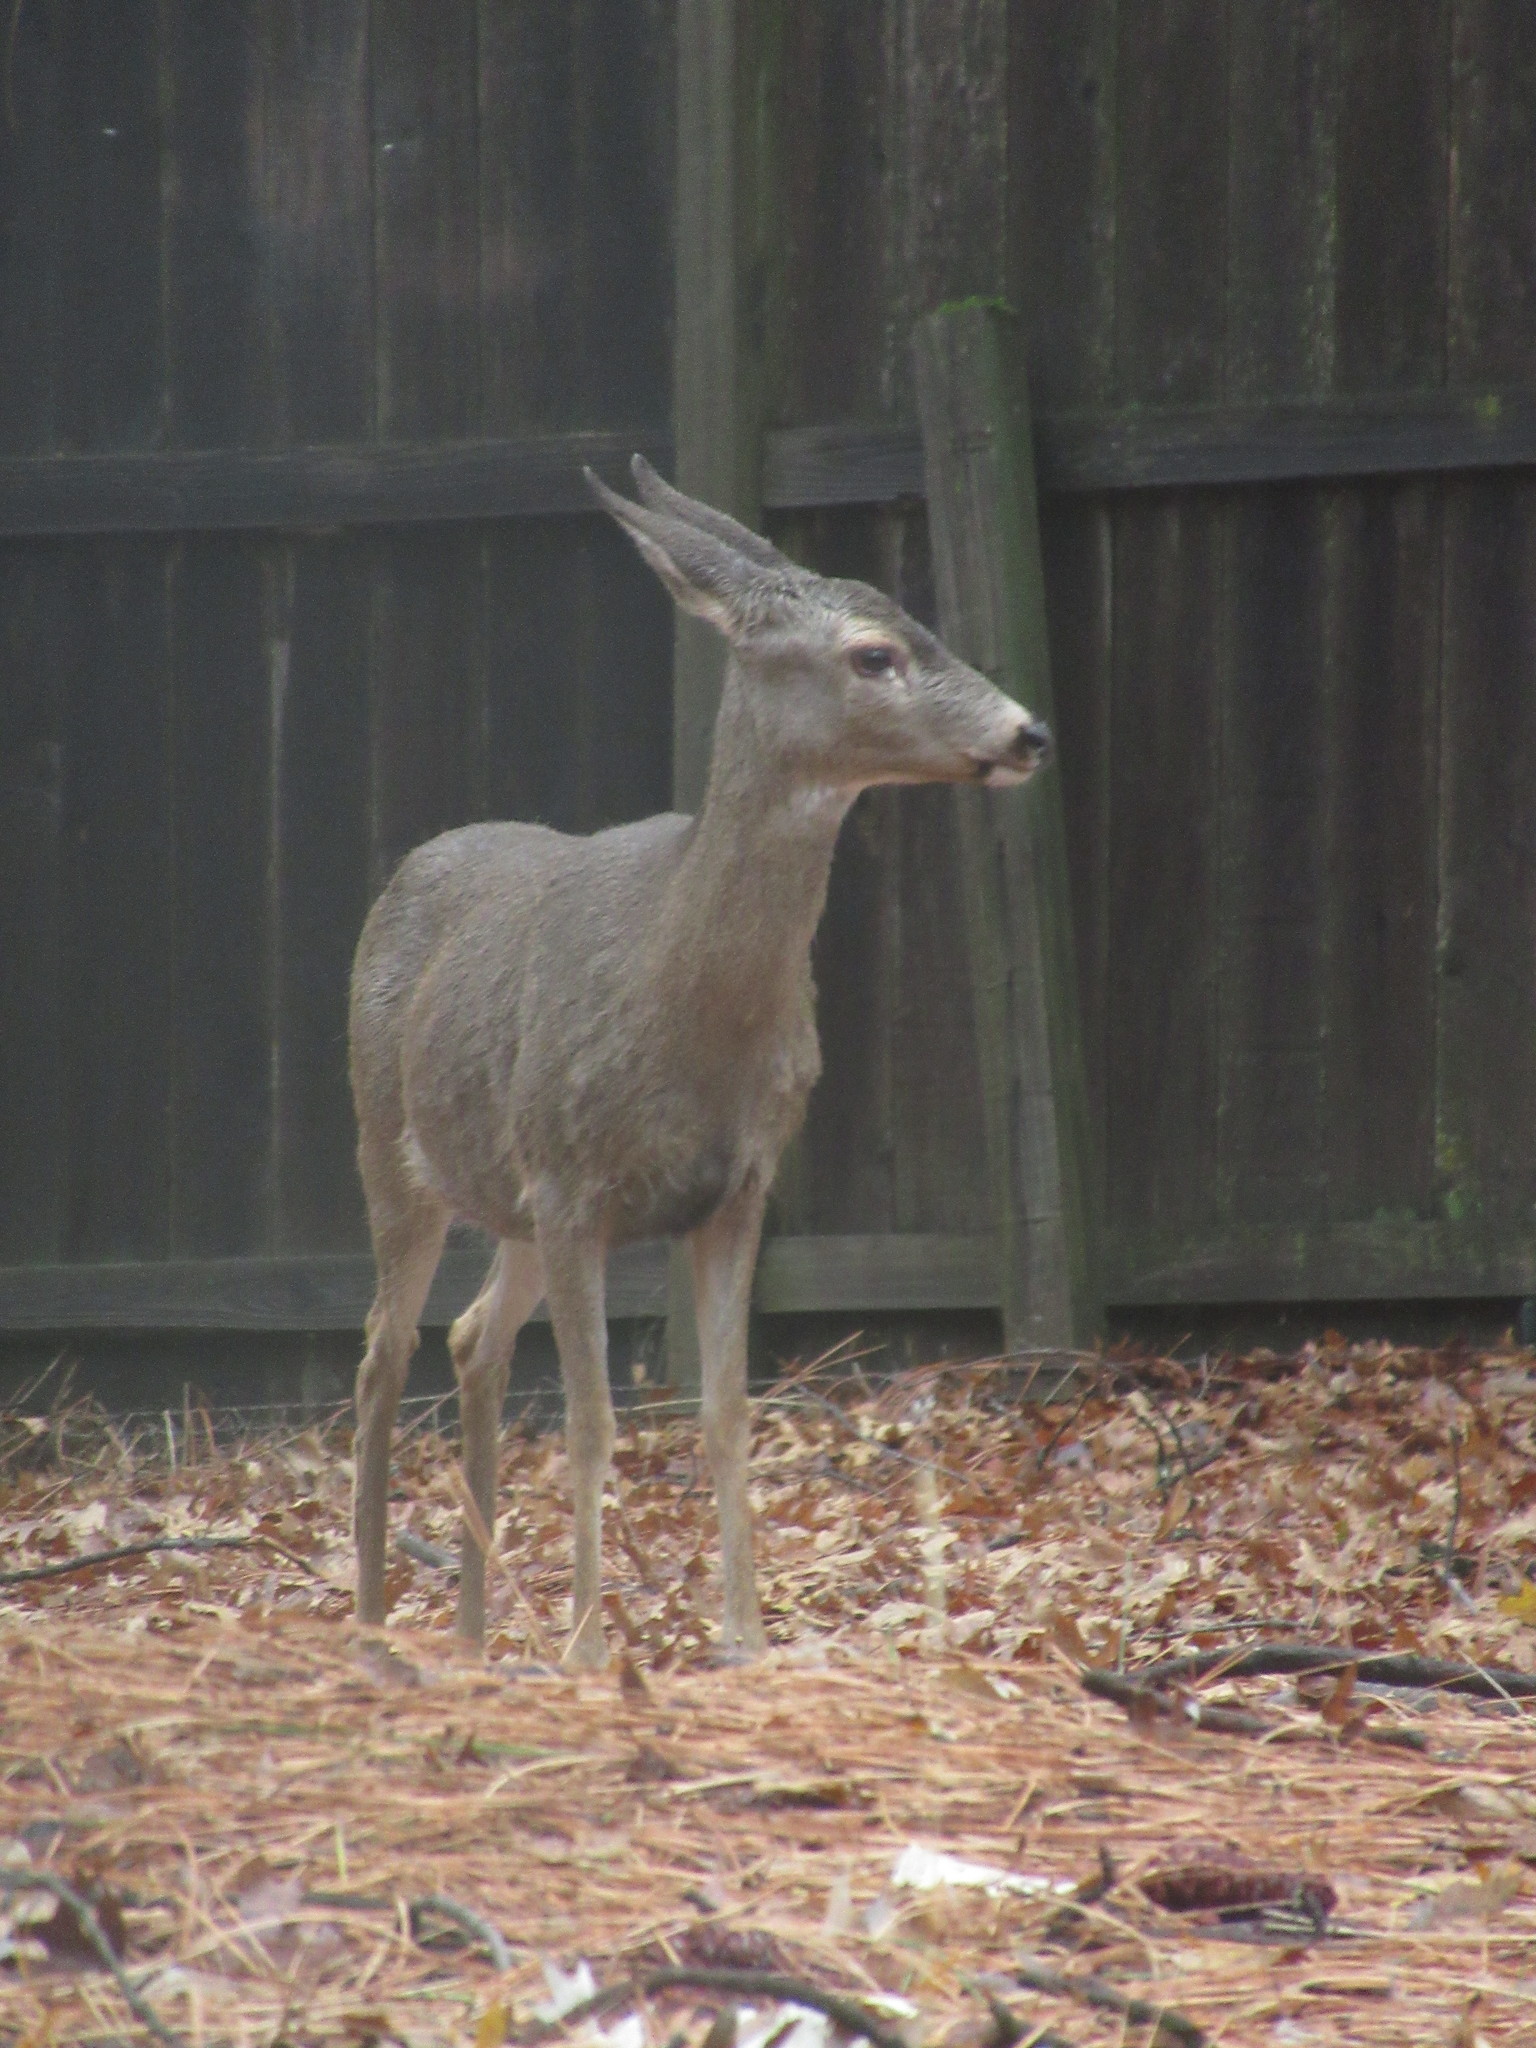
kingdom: Animalia
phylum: Chordata
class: Mammalia
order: Artiodactyla
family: Cervidae
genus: Odocoileus
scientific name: Odocoileus hemionus
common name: Mule deer
